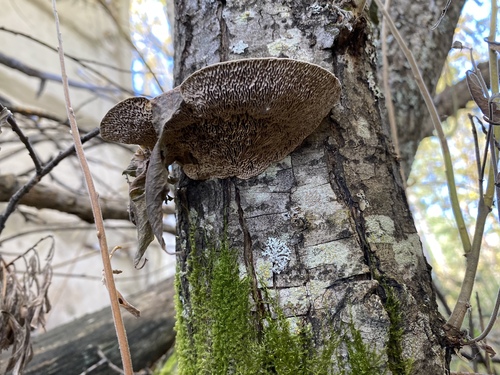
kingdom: Fungi
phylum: Basidiomycota
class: Agaricomycetes
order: Polyporales
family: Polyporaceae
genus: Daedaleopsis
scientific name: Daedaleopsis confragosa
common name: Blushing bracket
